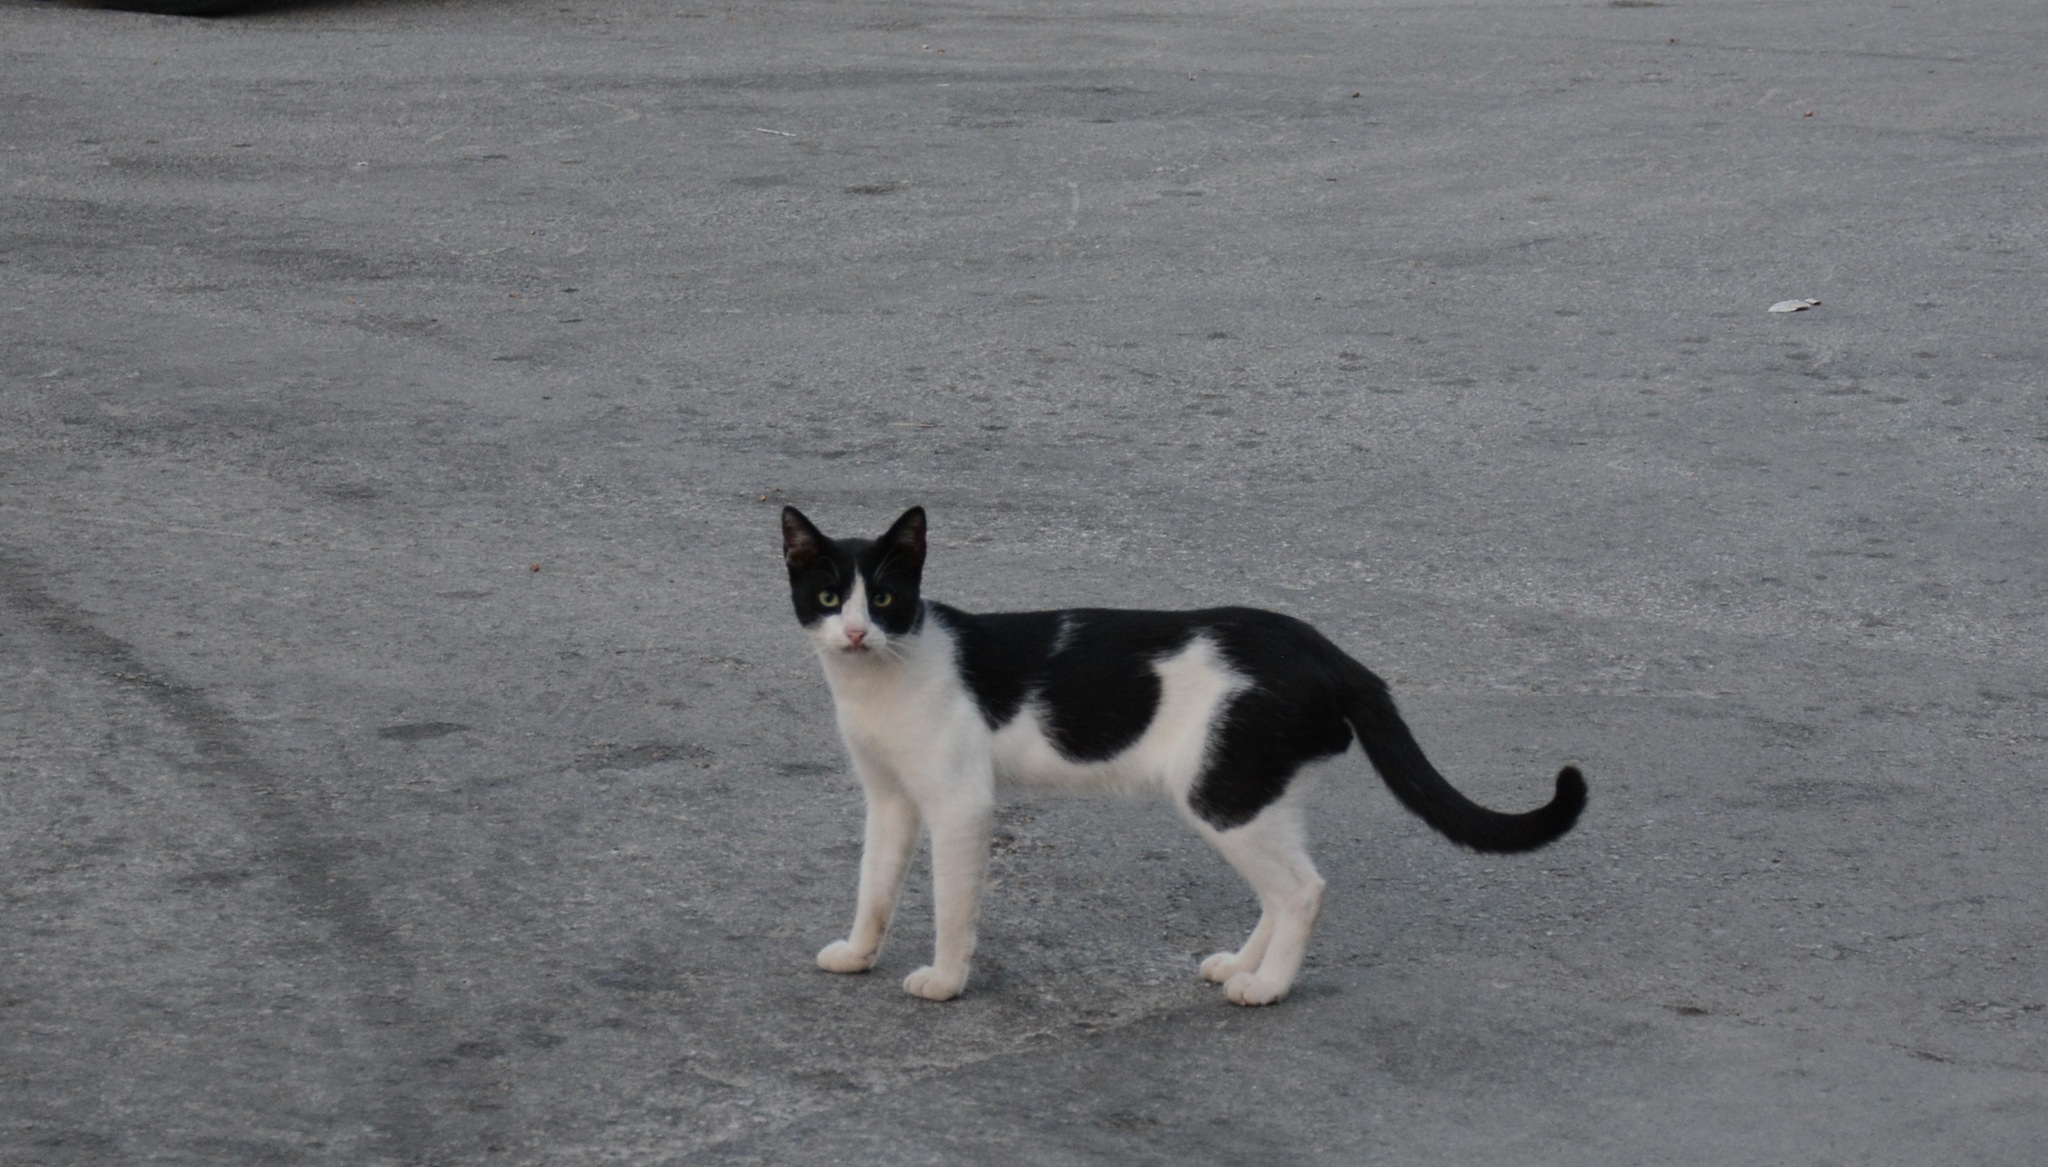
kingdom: Animalia
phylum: Chordata
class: Mammalia
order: Carnivora
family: Felidae
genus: Felis
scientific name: Felis catus
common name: Domestic cat
